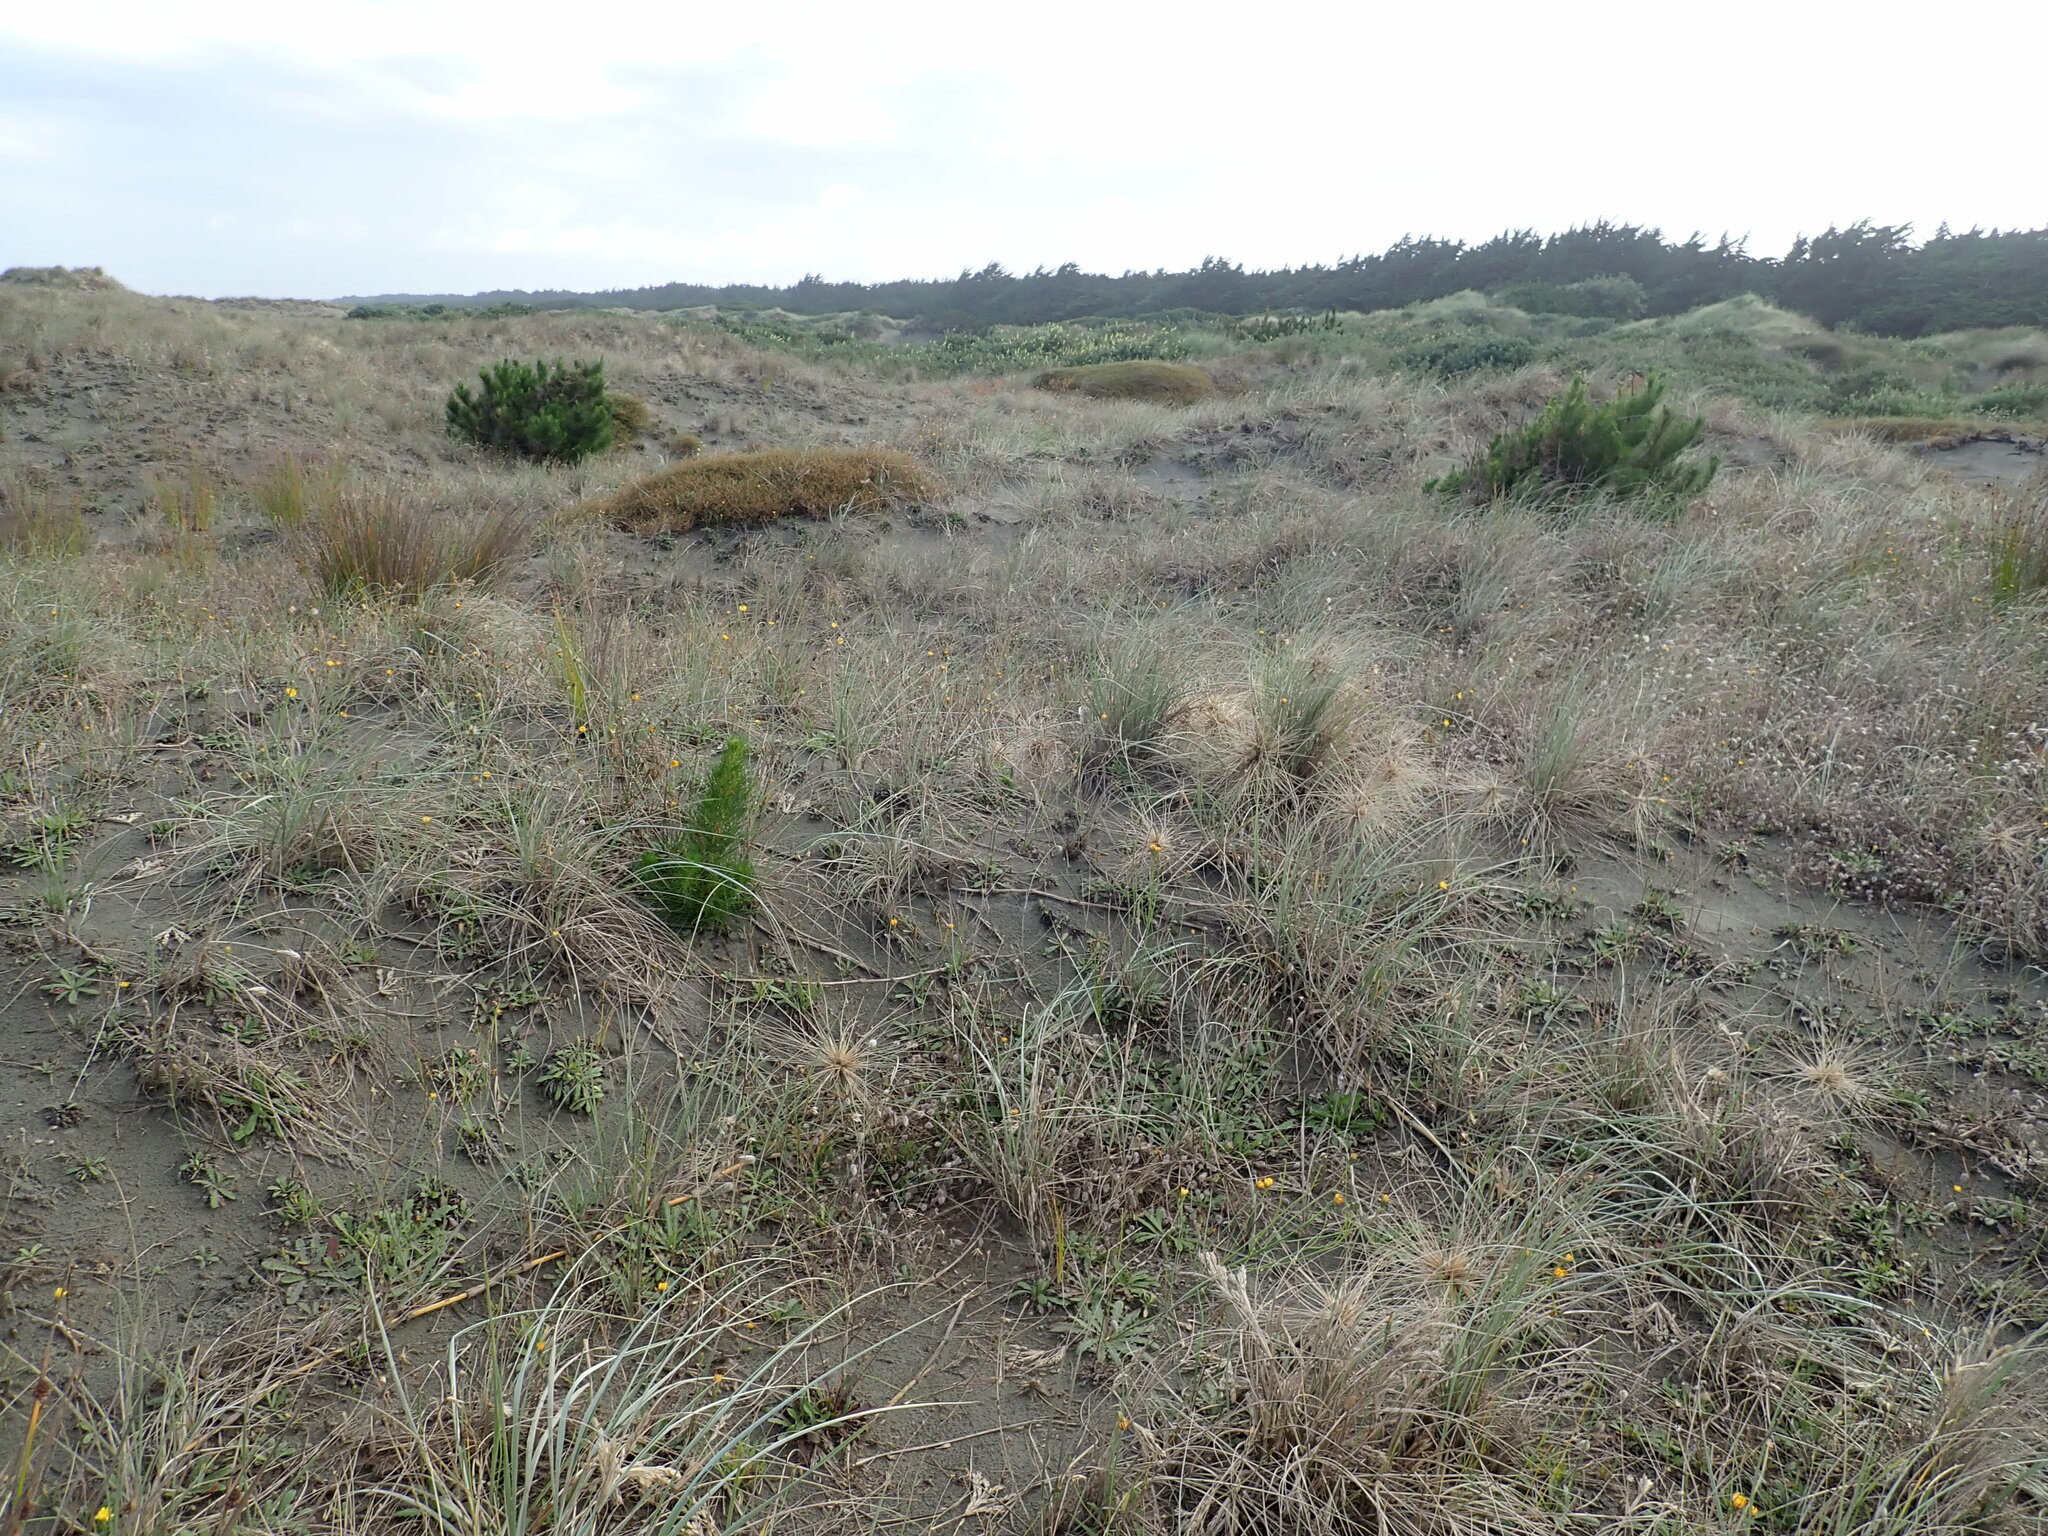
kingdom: Plantae
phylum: Tracheophyta
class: Pinopsida
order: Pinales
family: Pinaceae
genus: Pinus
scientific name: Pinus radiata
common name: Monterey pine
